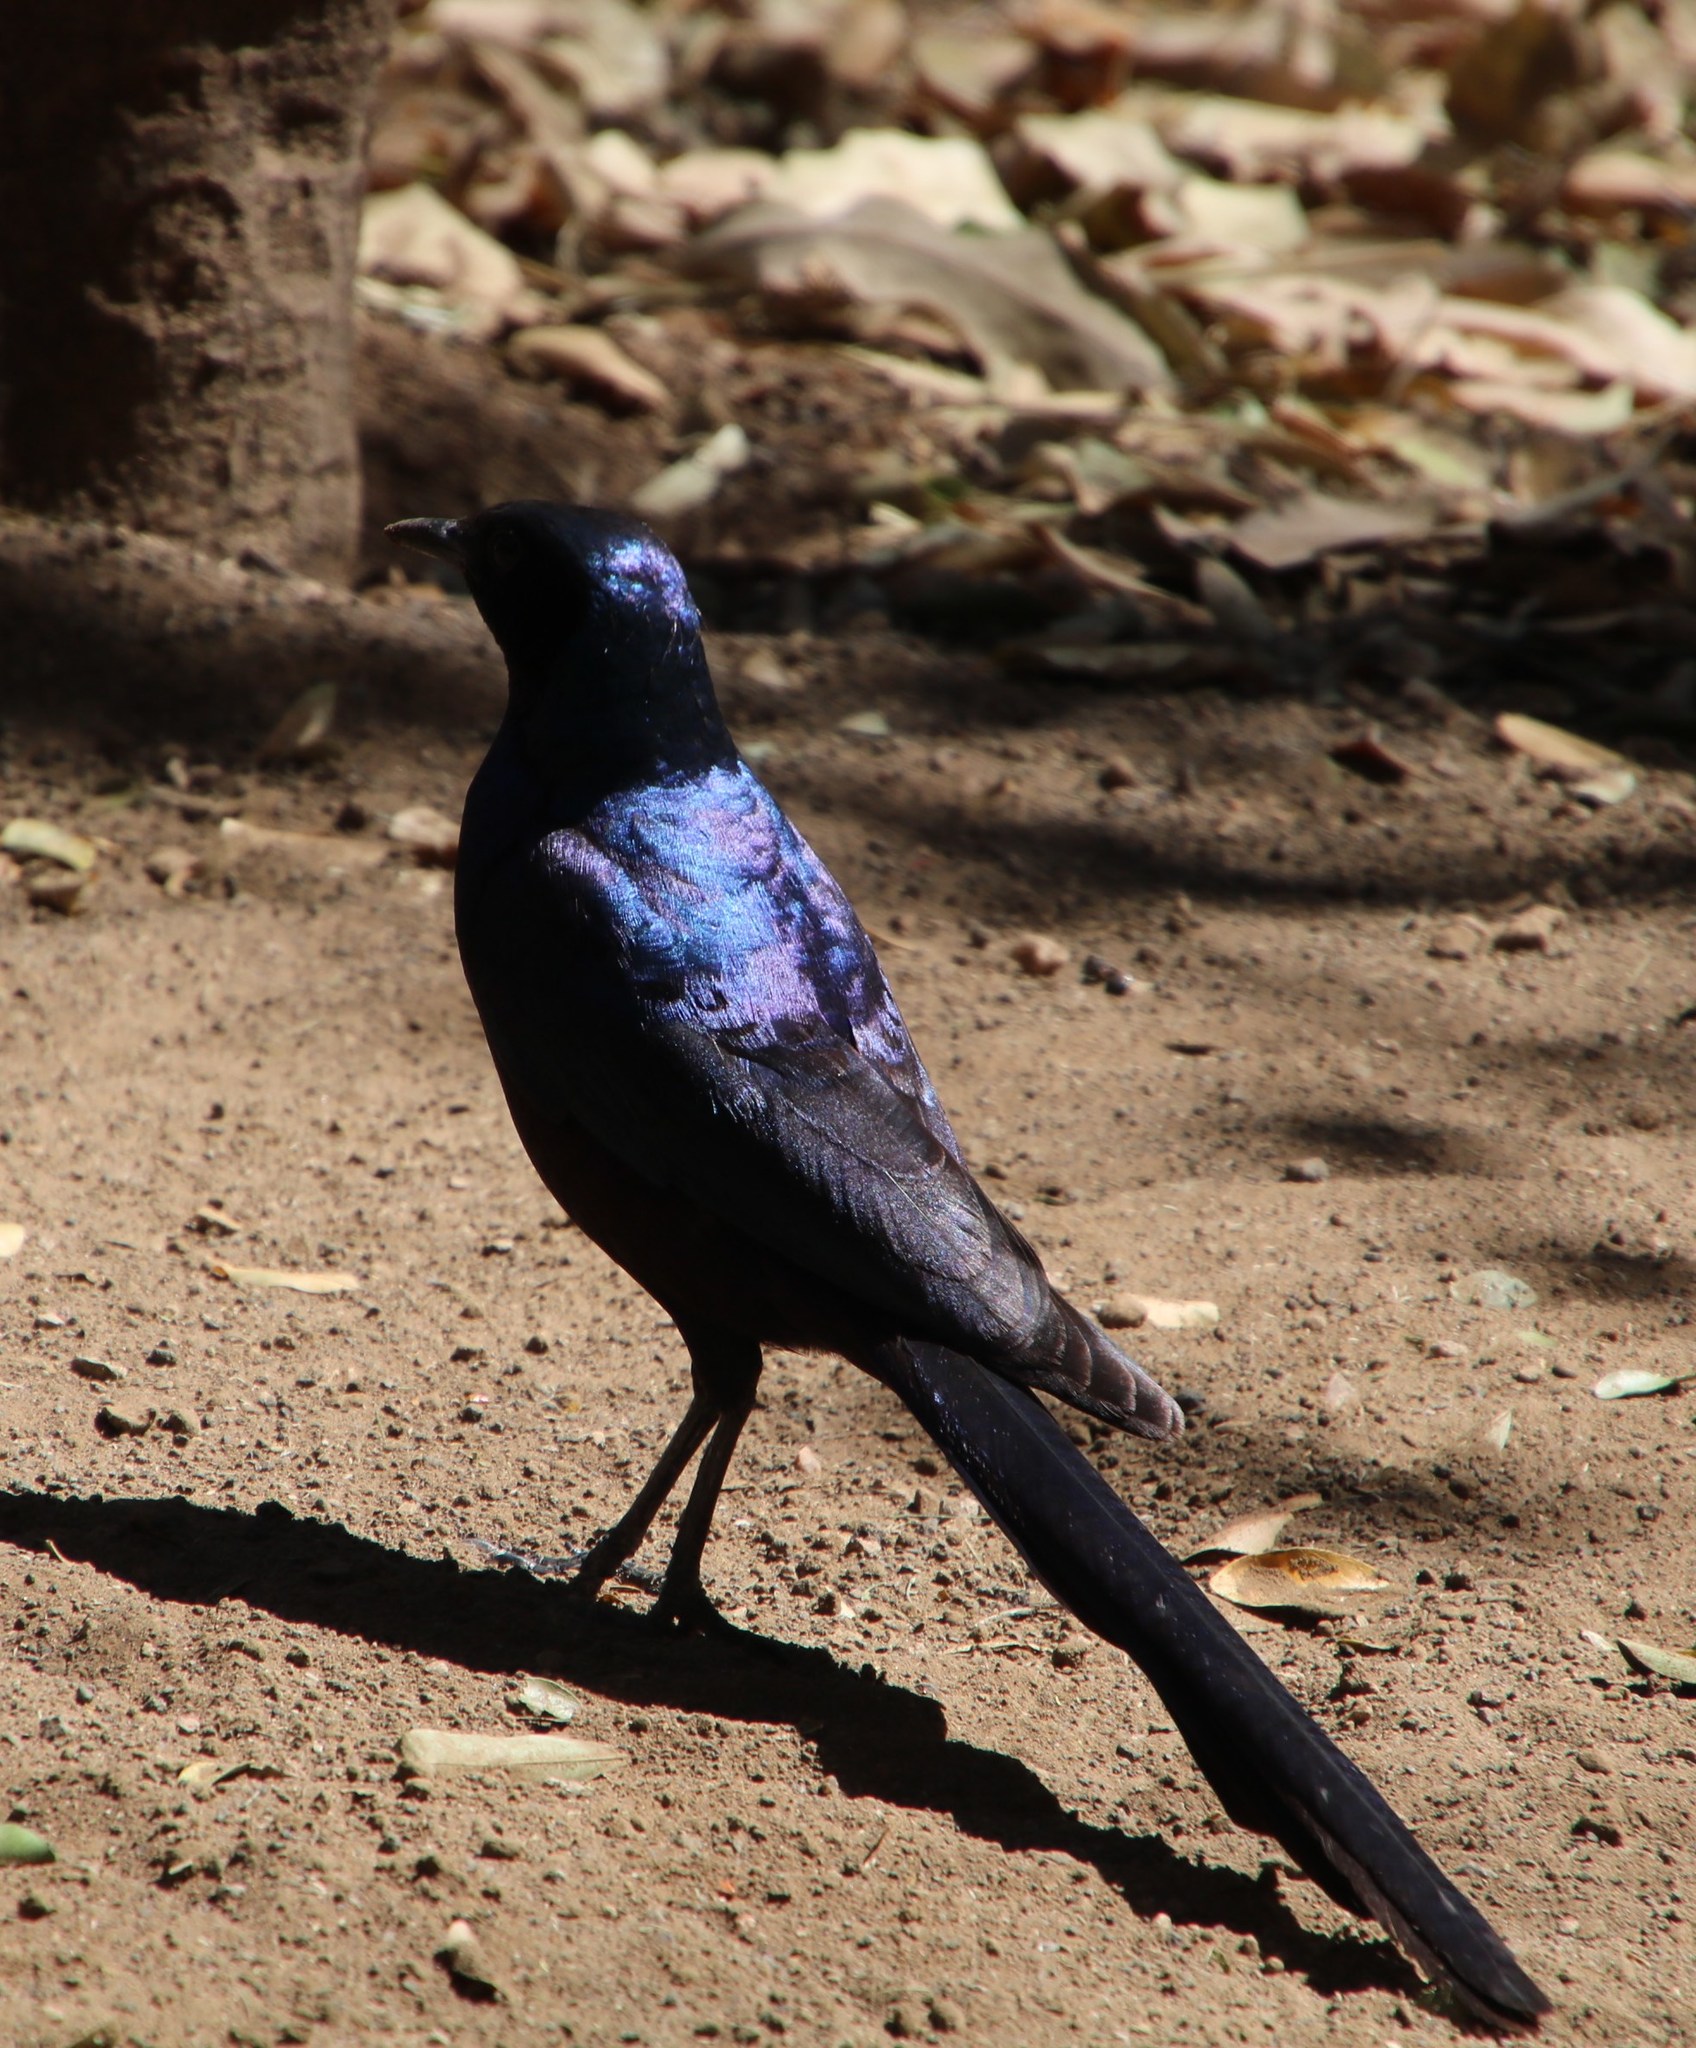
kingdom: Animalia
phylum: Chordata
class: Aves
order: Passeriformes
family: Sturnidae
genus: Lamprotornis
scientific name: Lamprotornis mevesii
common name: Meves's starling
